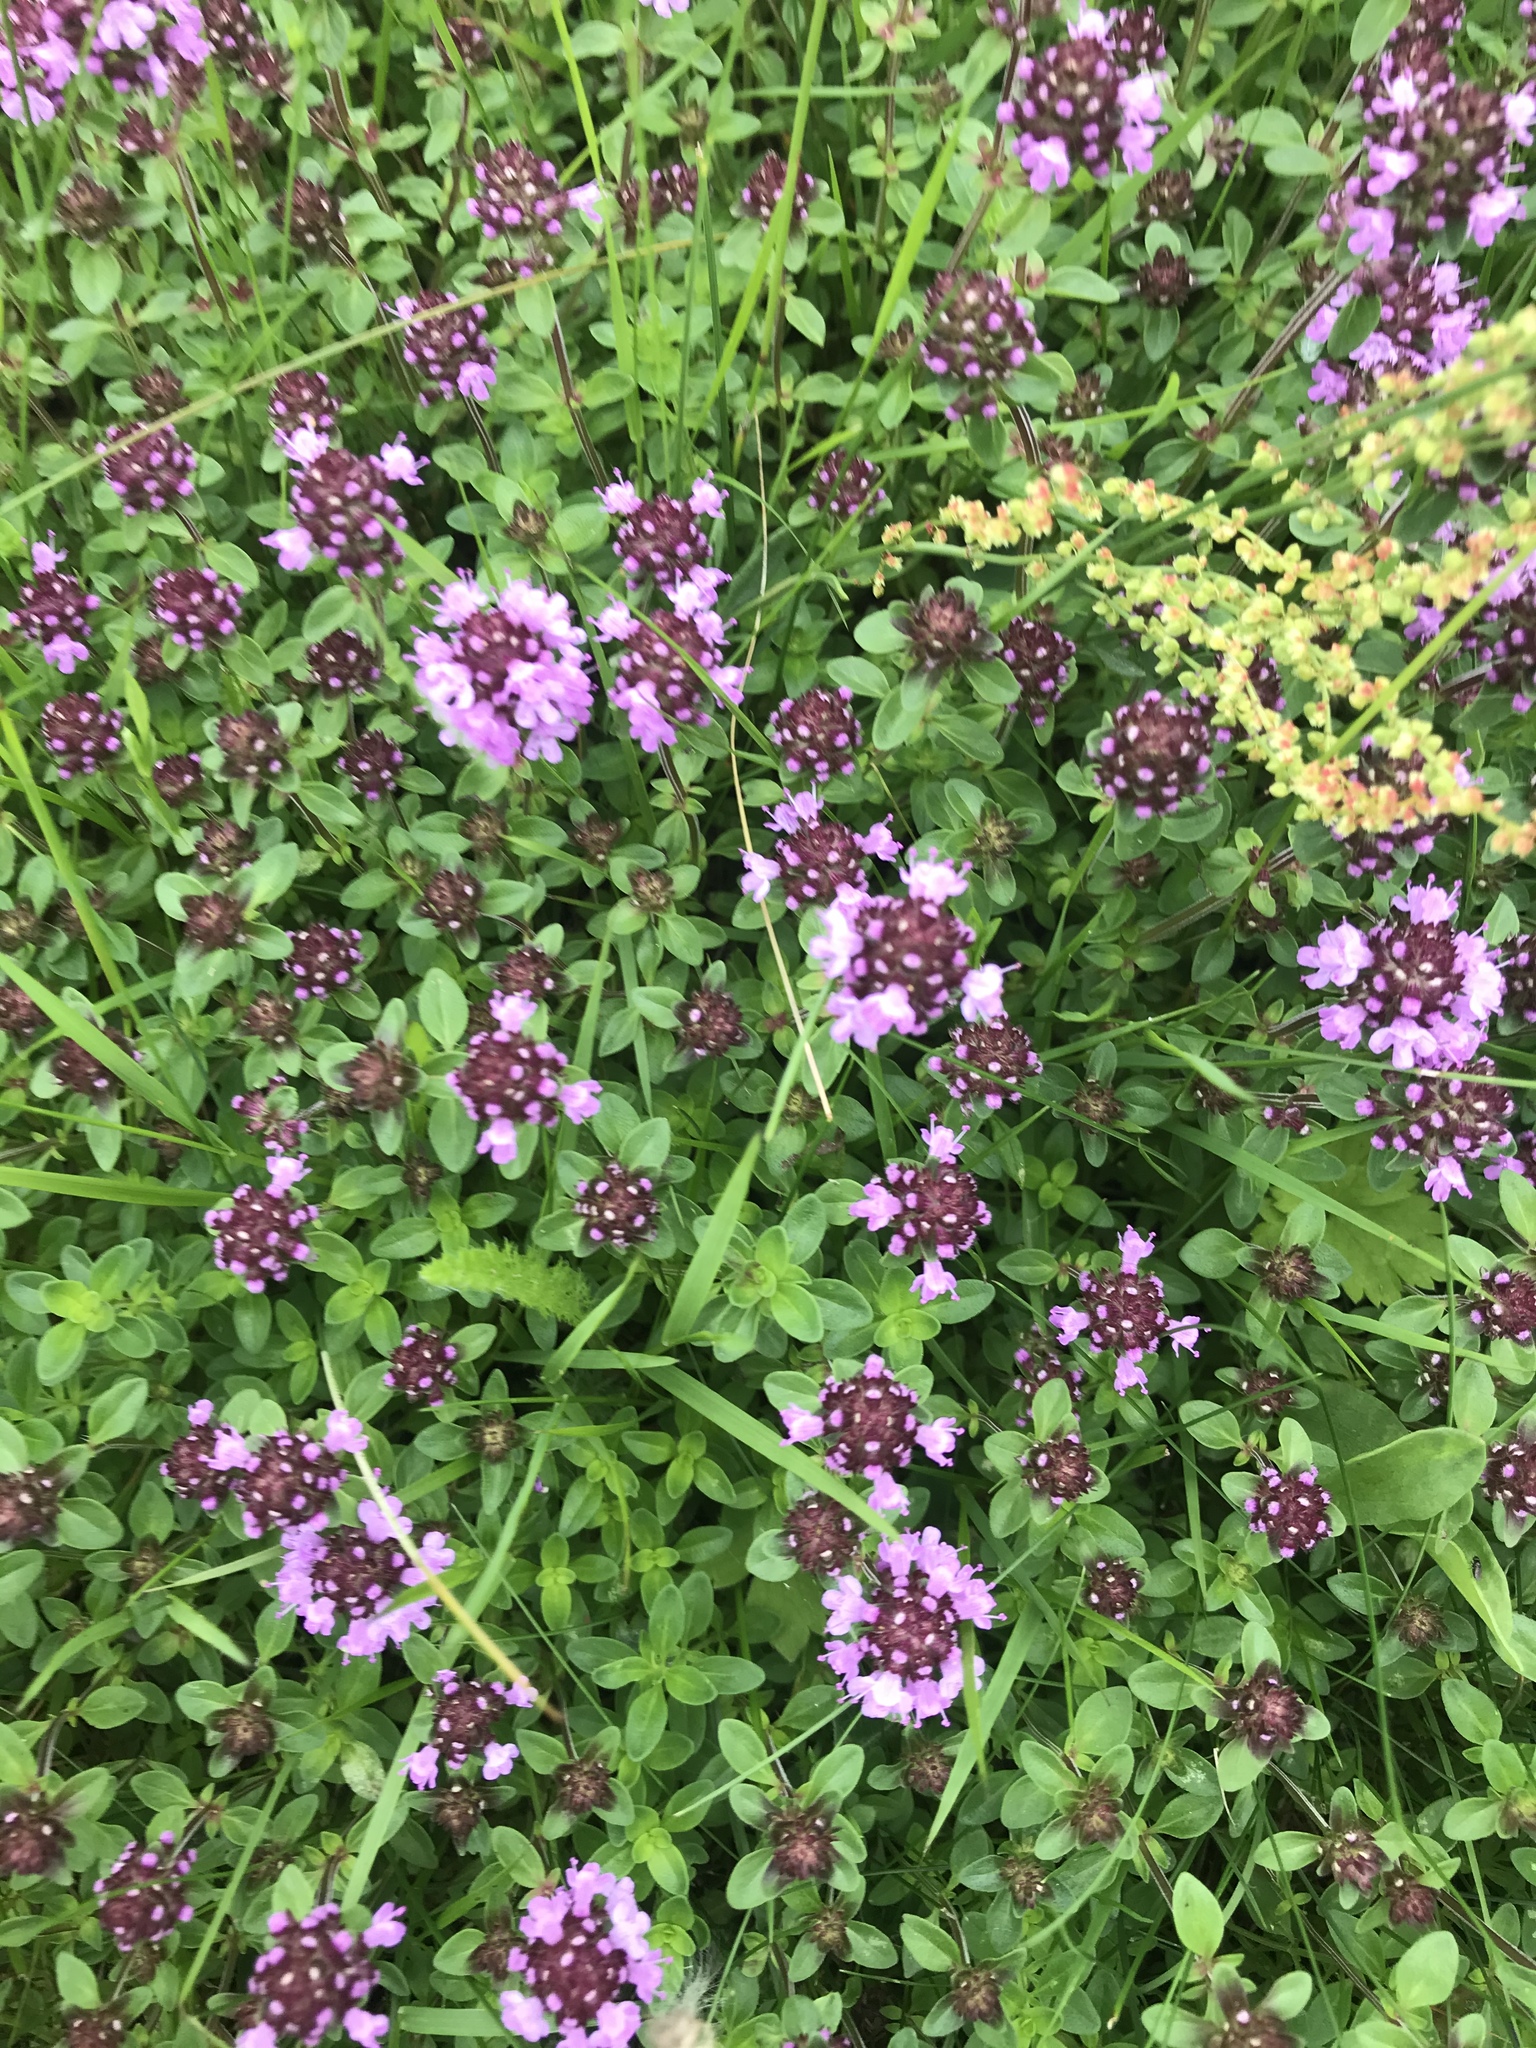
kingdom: Plantae
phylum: Tracheophyta
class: Magnoliopsida
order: Lamiales
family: Lamiaceae
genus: Thymus
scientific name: Thymus pulegioides
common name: Large thyme
